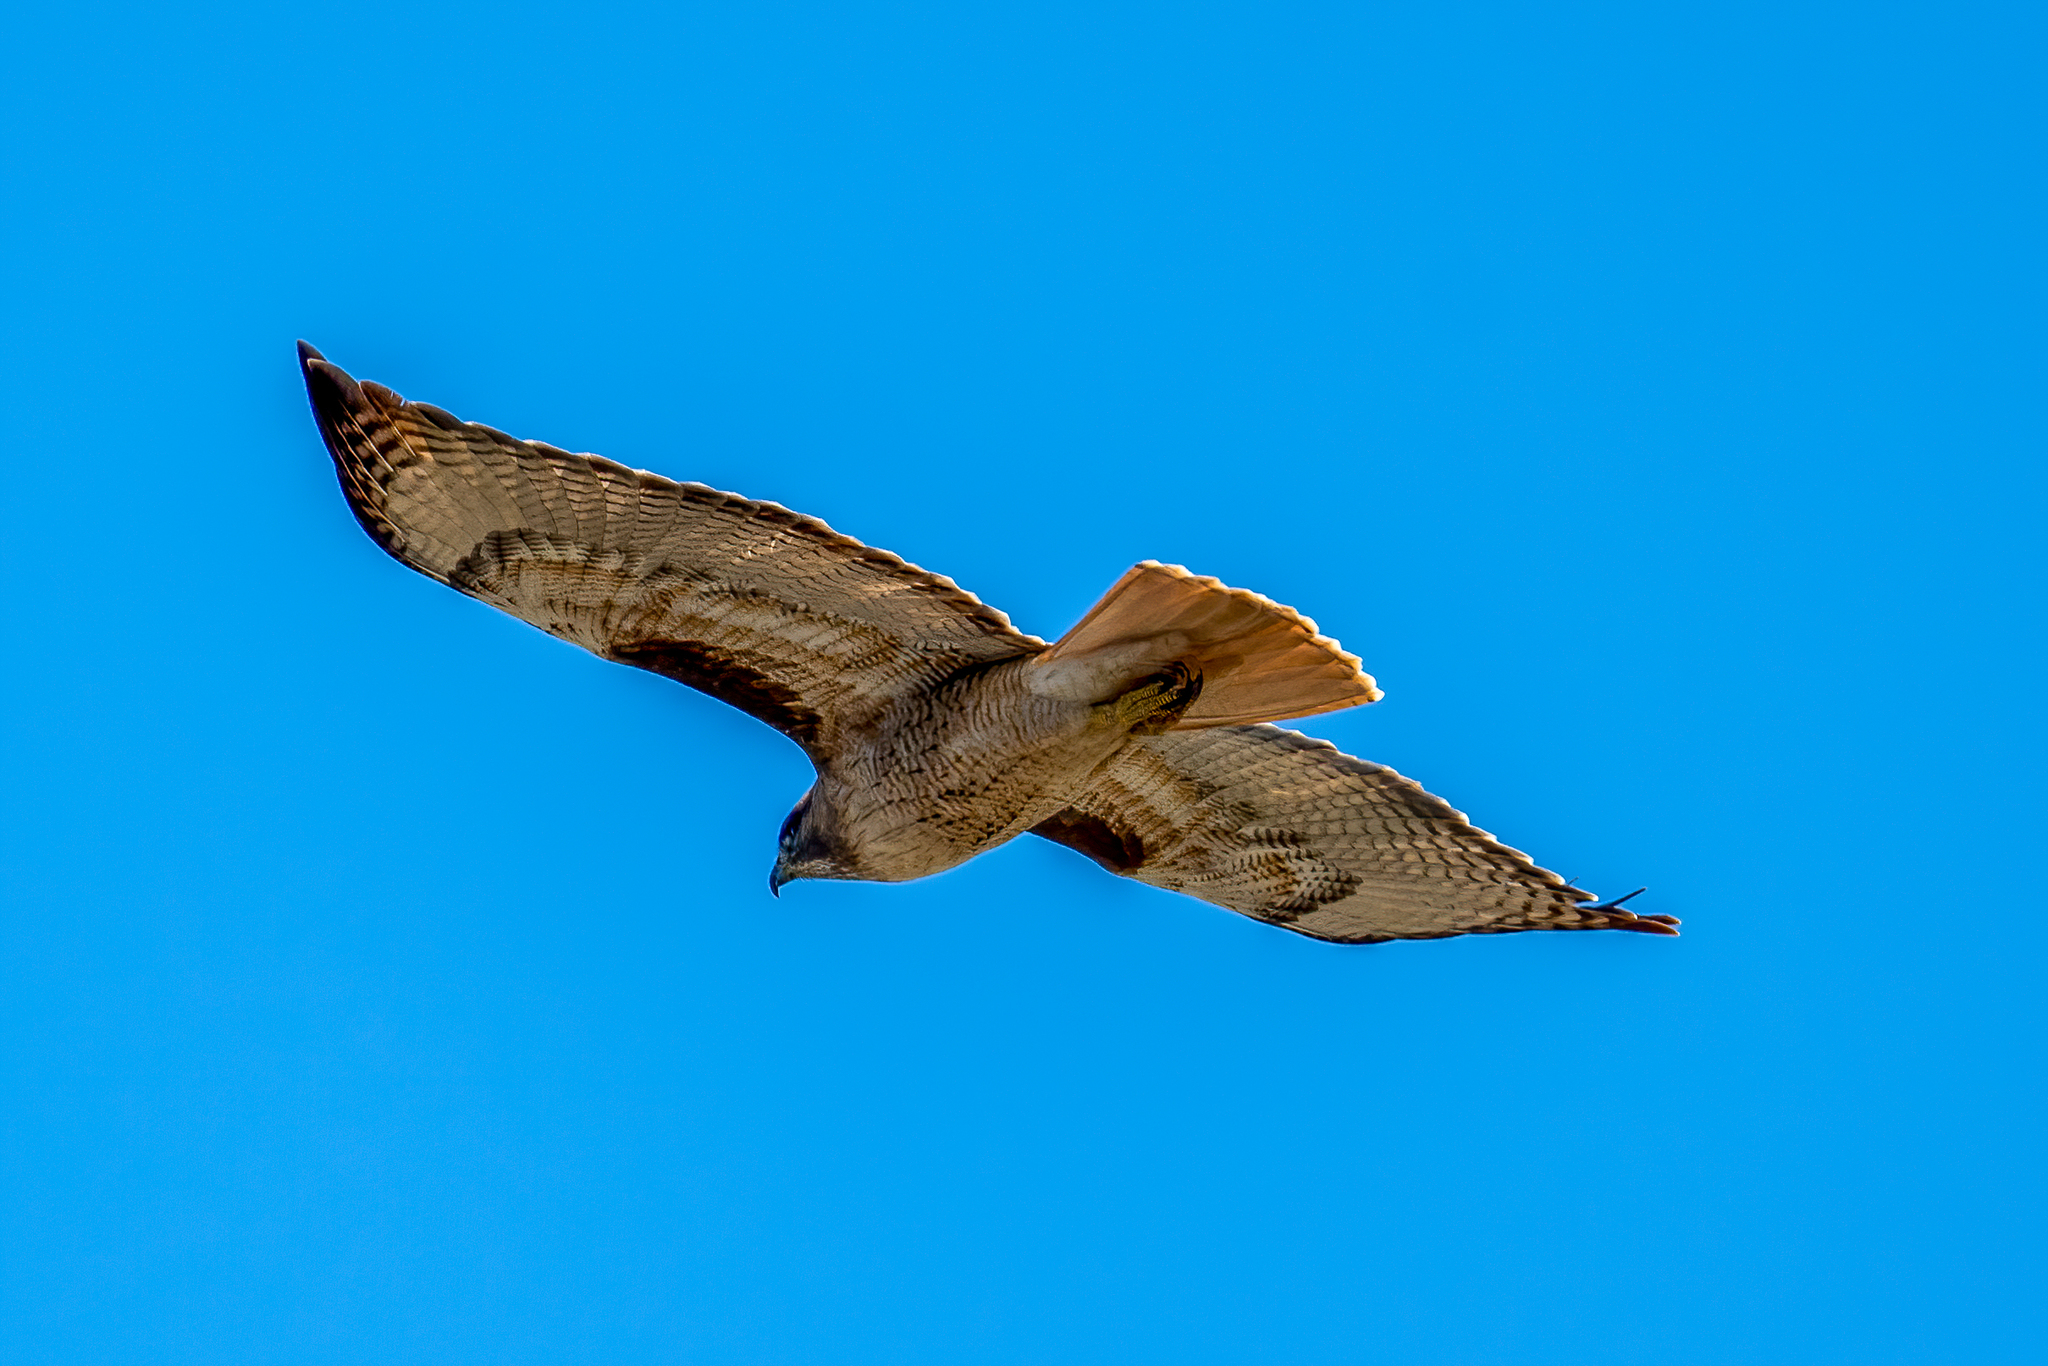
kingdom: Animalia
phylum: Chordata
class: Aves
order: Accipitriformes
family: Accipitridae
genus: Buteo
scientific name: Buteo jamaicensis
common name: Red-tailed hawk
